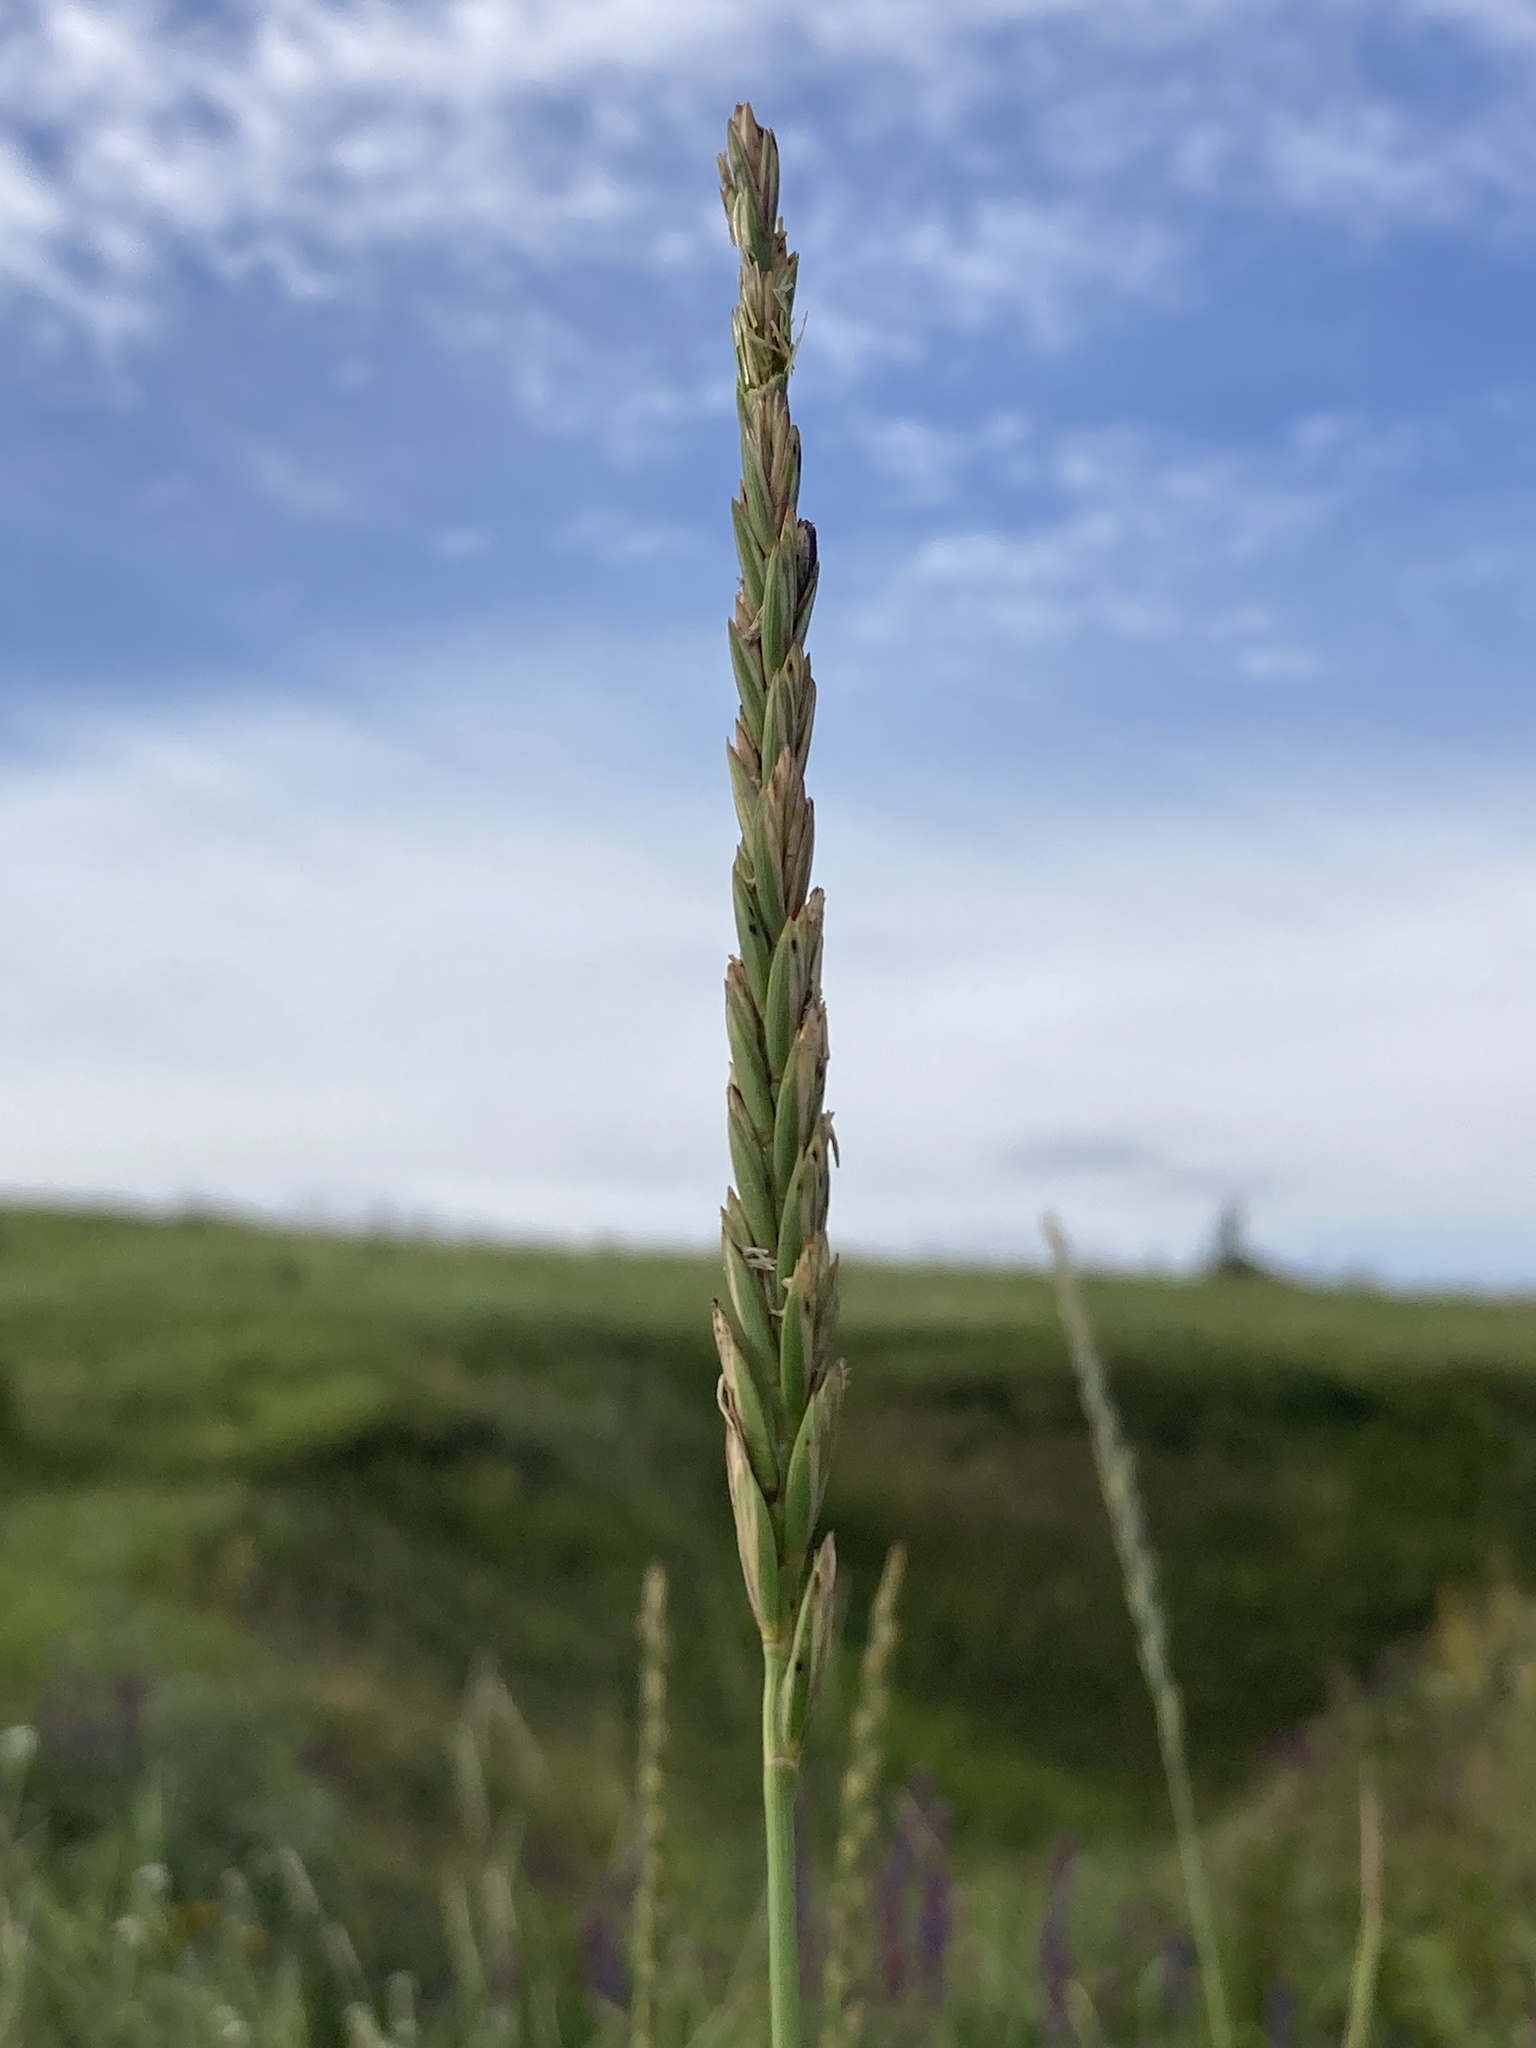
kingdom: Plantae
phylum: Tracheophyta
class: Liliopsida
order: Poales
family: Poaceae
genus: Elymus
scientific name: Elymus repens
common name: Quackgrass
